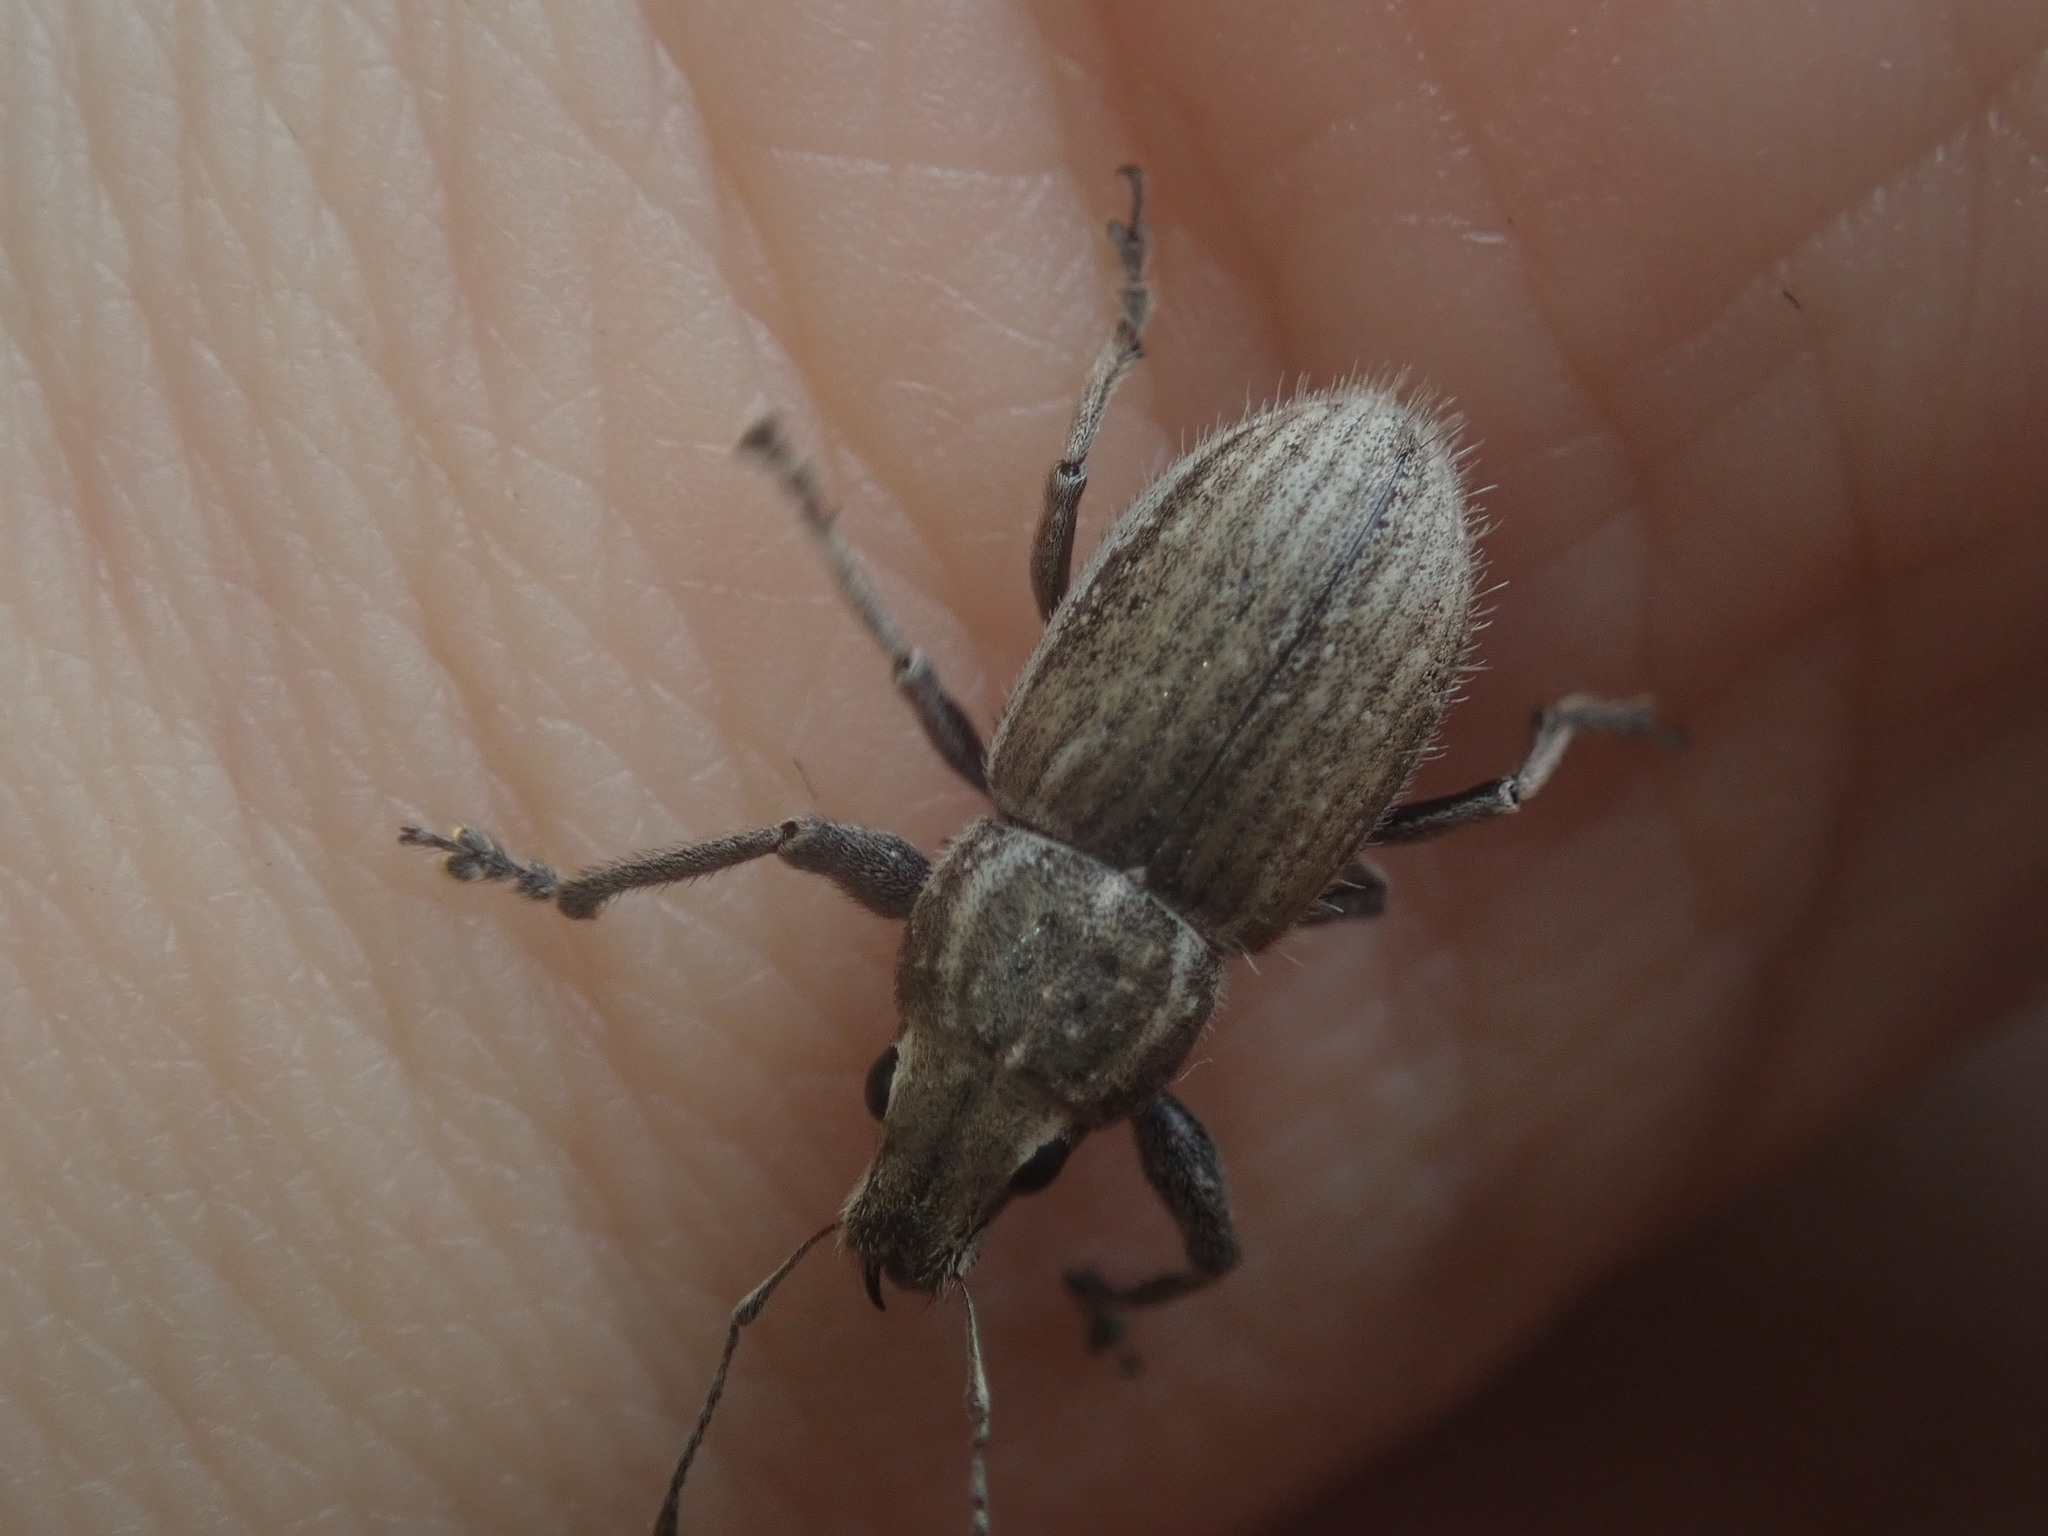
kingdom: Animalia
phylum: Arthropoda
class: Insecta
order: Coleoptera
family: Curculionidae
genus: Naupactus
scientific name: Naupactus leucoloma
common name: Whitefringed beetle
